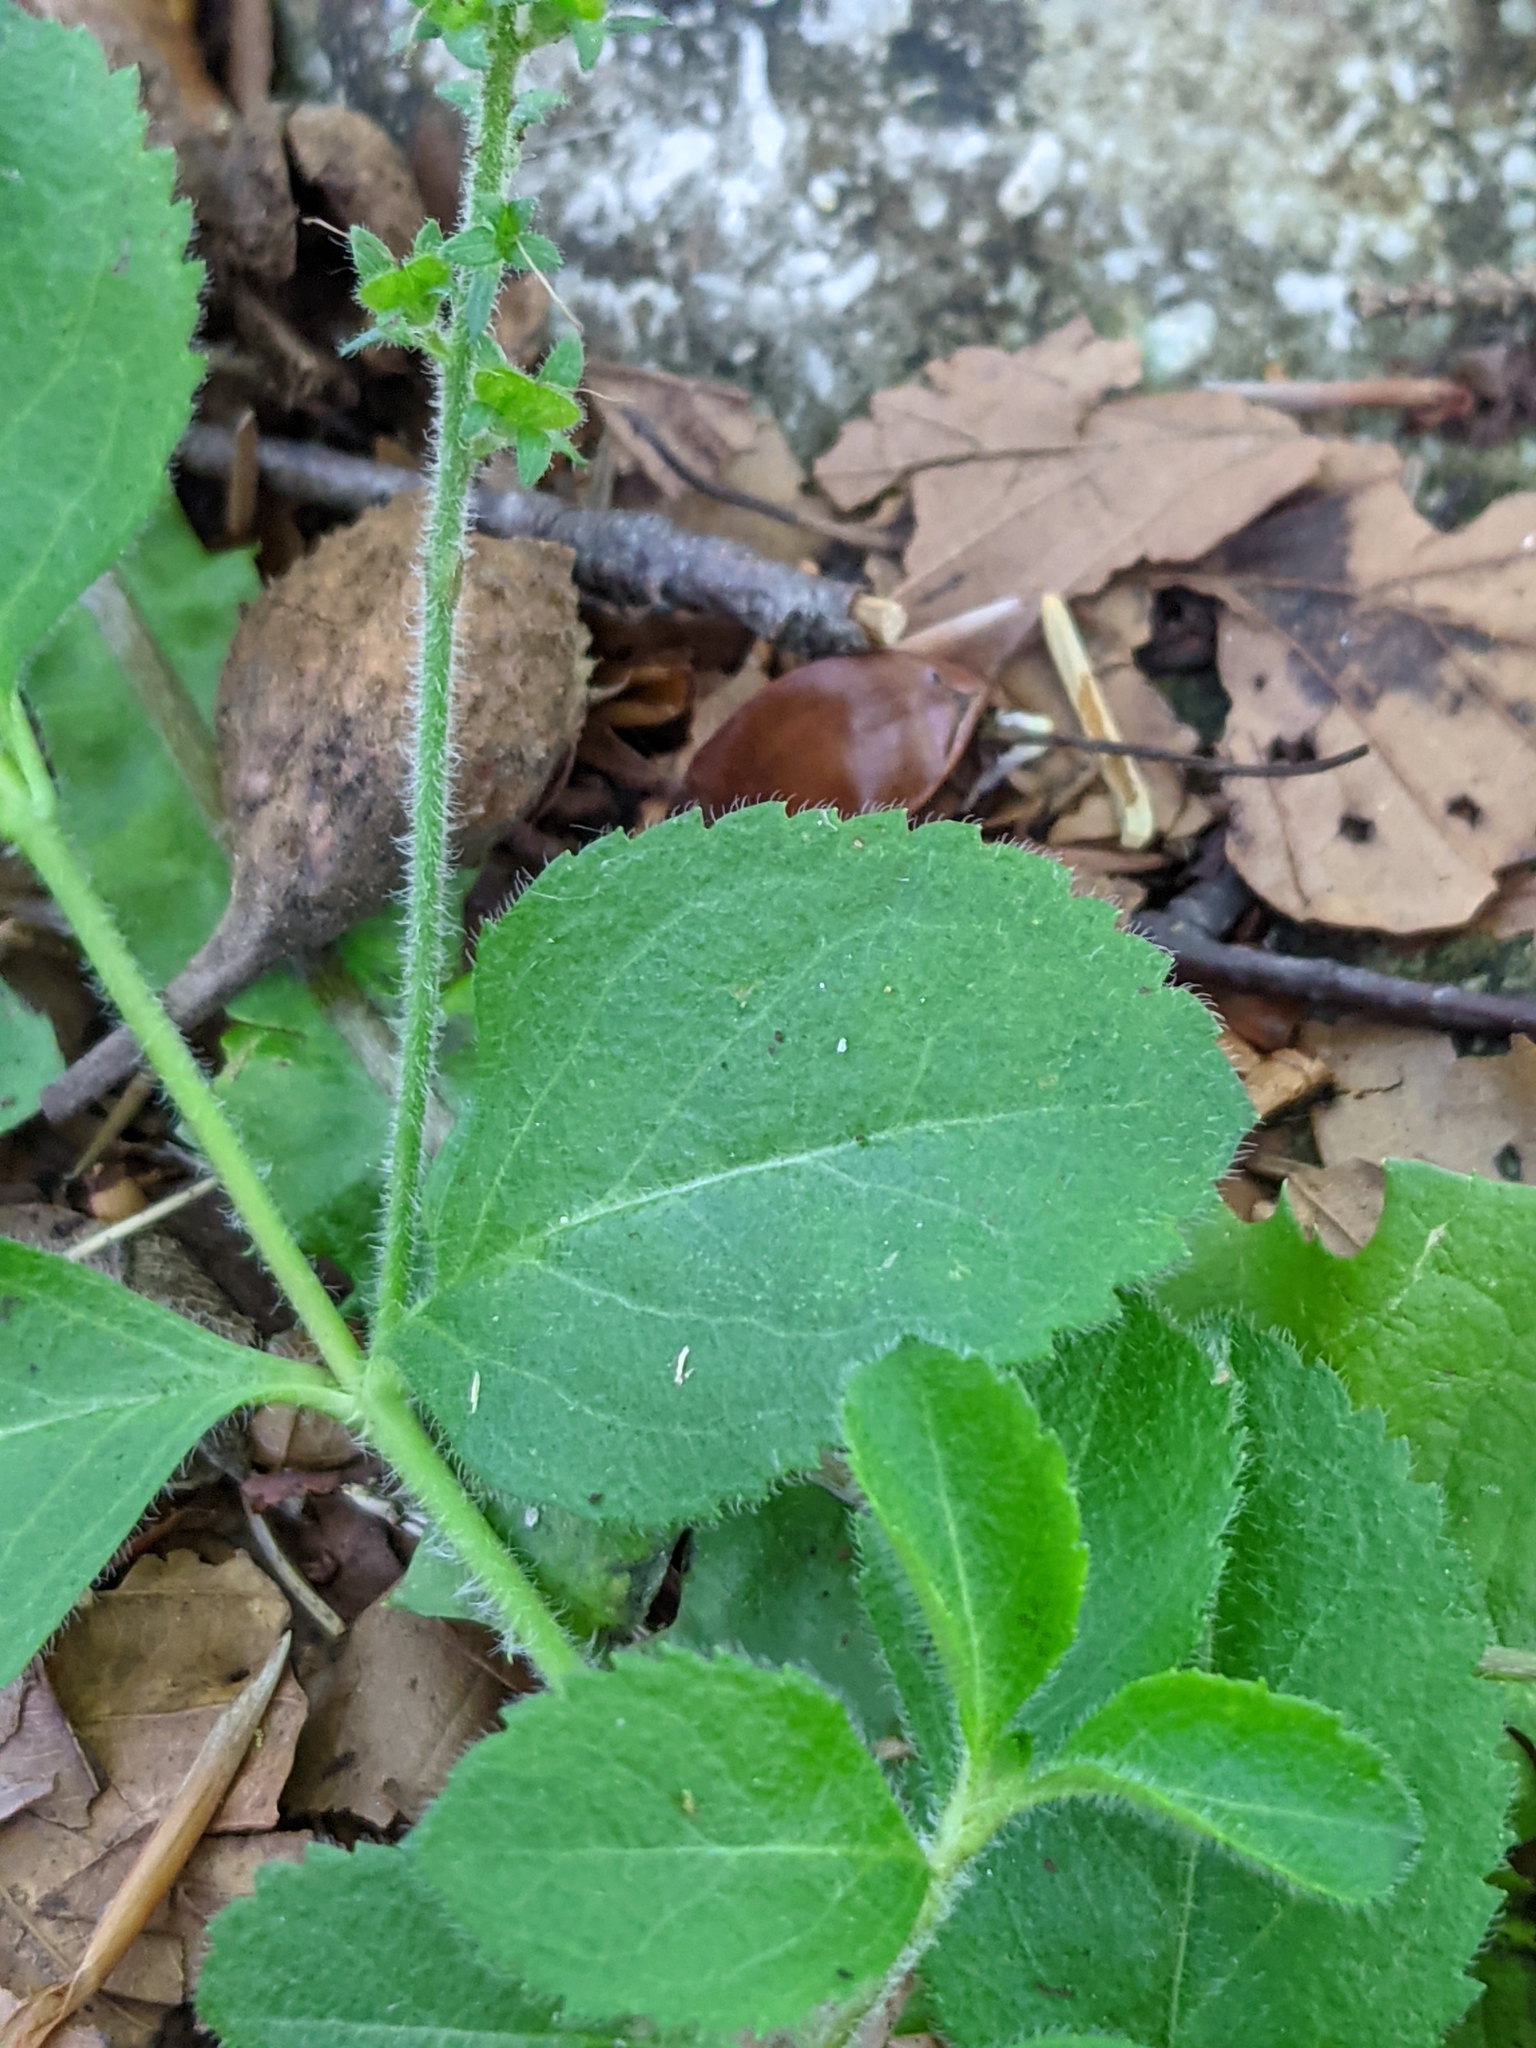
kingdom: Plantae
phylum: Tracheophyta
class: Magnoliopsida
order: Lamiales
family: Plantaginaceae
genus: Veronica
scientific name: Veronica officinalis
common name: Common speedwell
